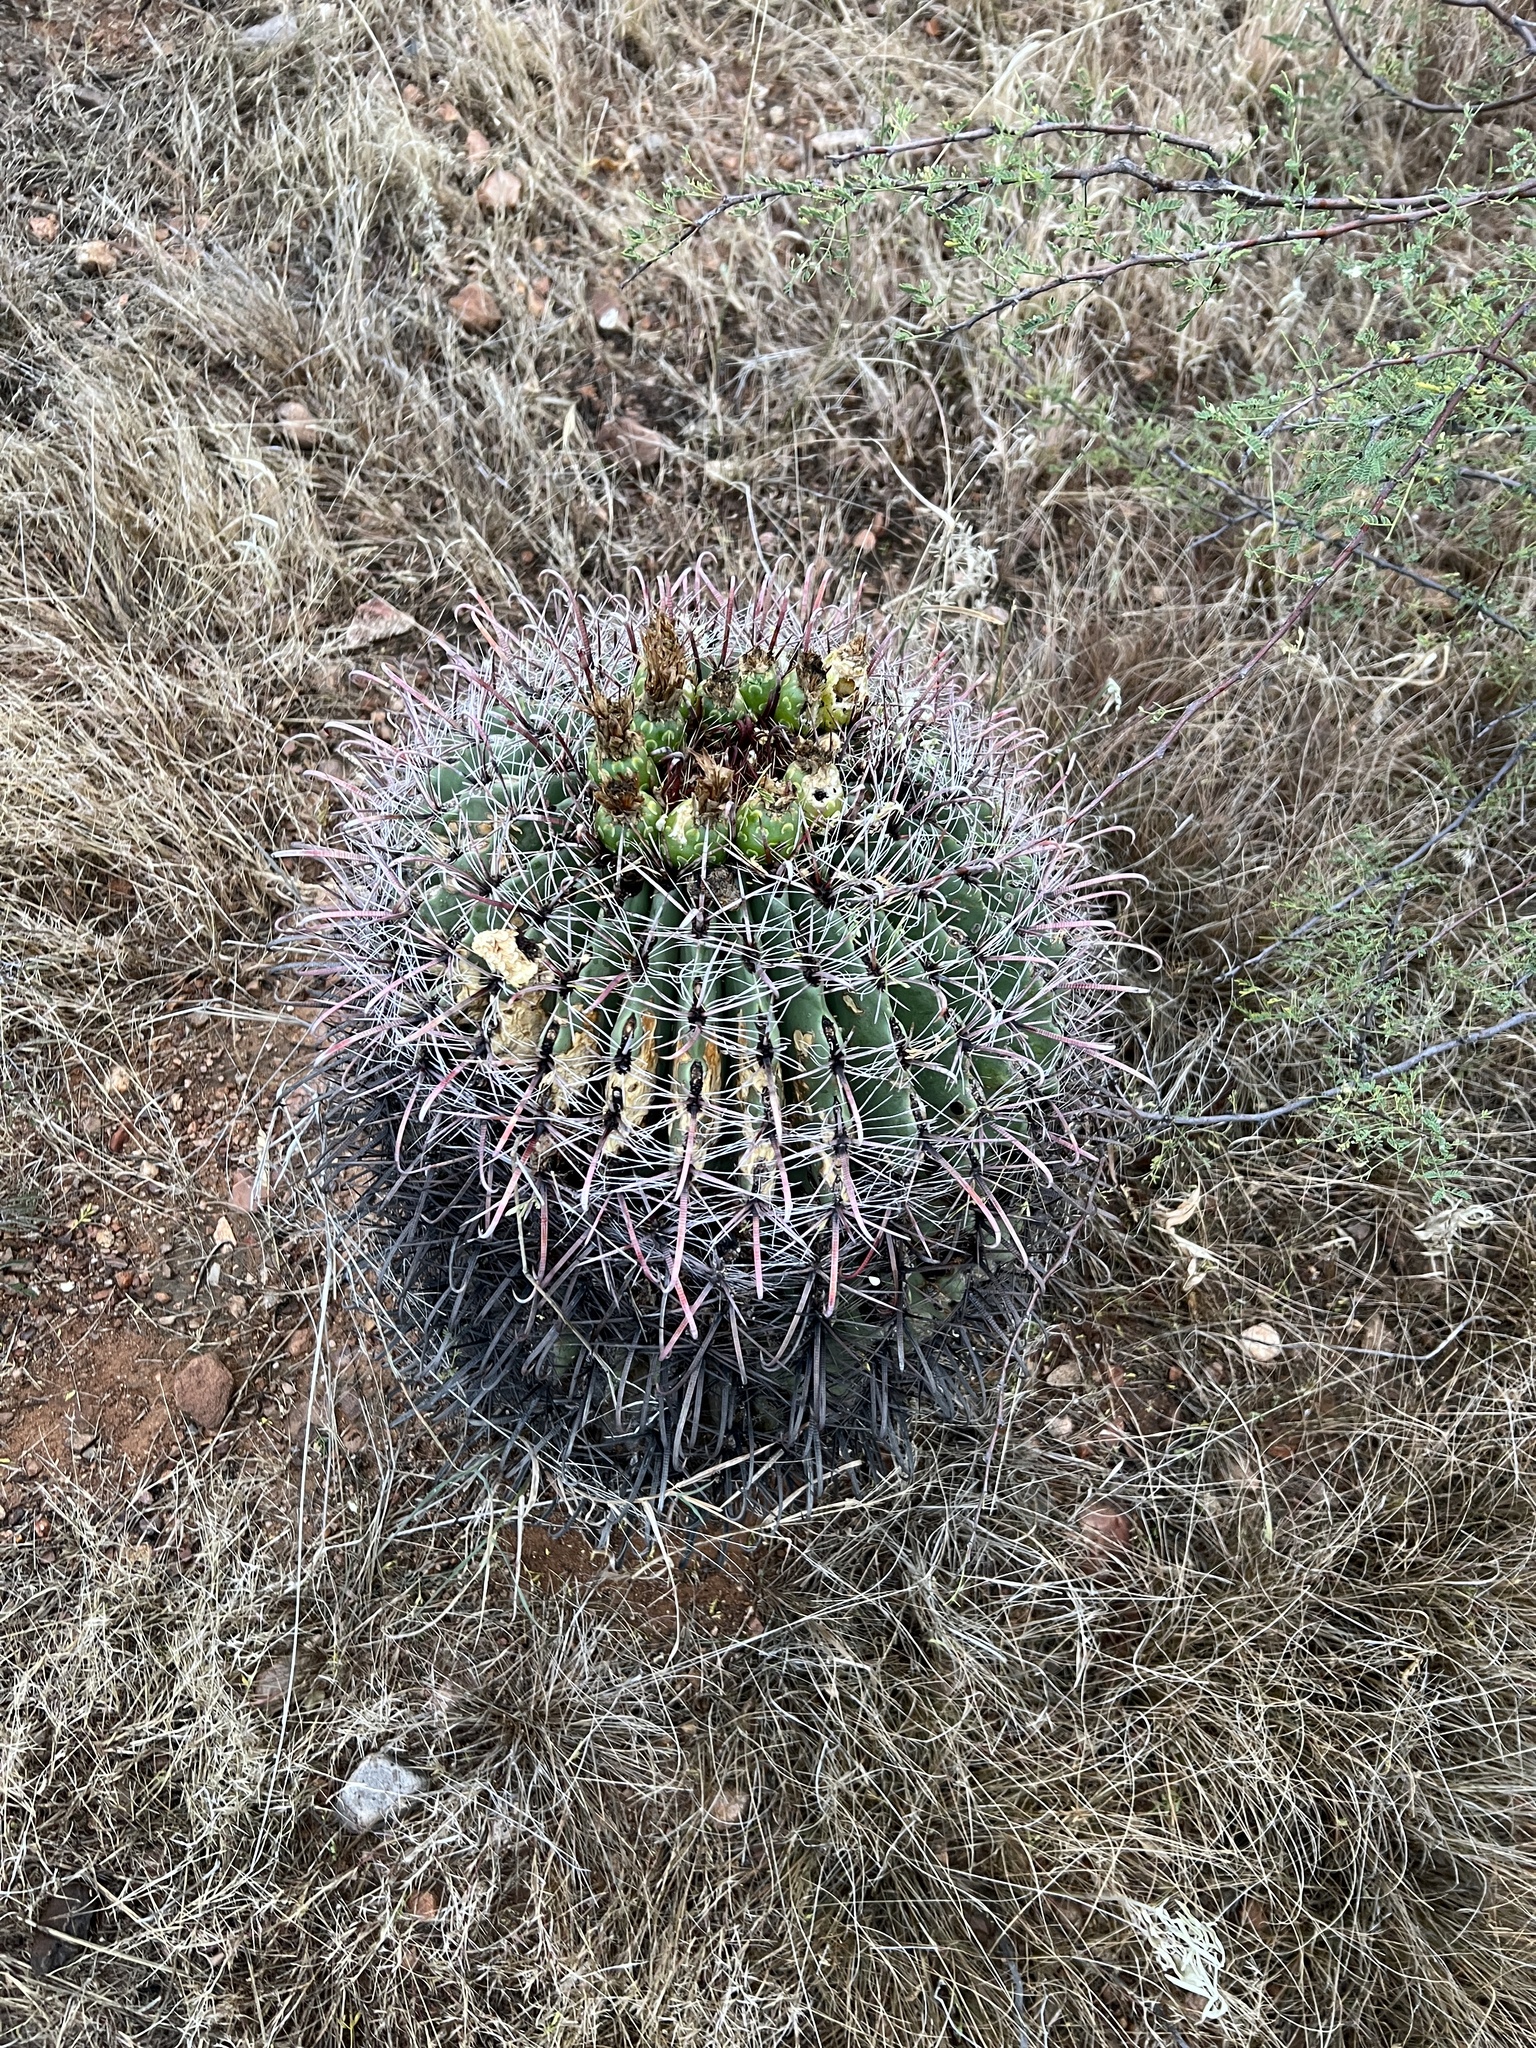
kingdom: Plantae
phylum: Tracheophyta
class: Magnoliopsida
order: Caryophyllales
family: Cactaceae
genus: Ferocactus
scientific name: Ferocactus wislizeni
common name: Candy barrel cactus
